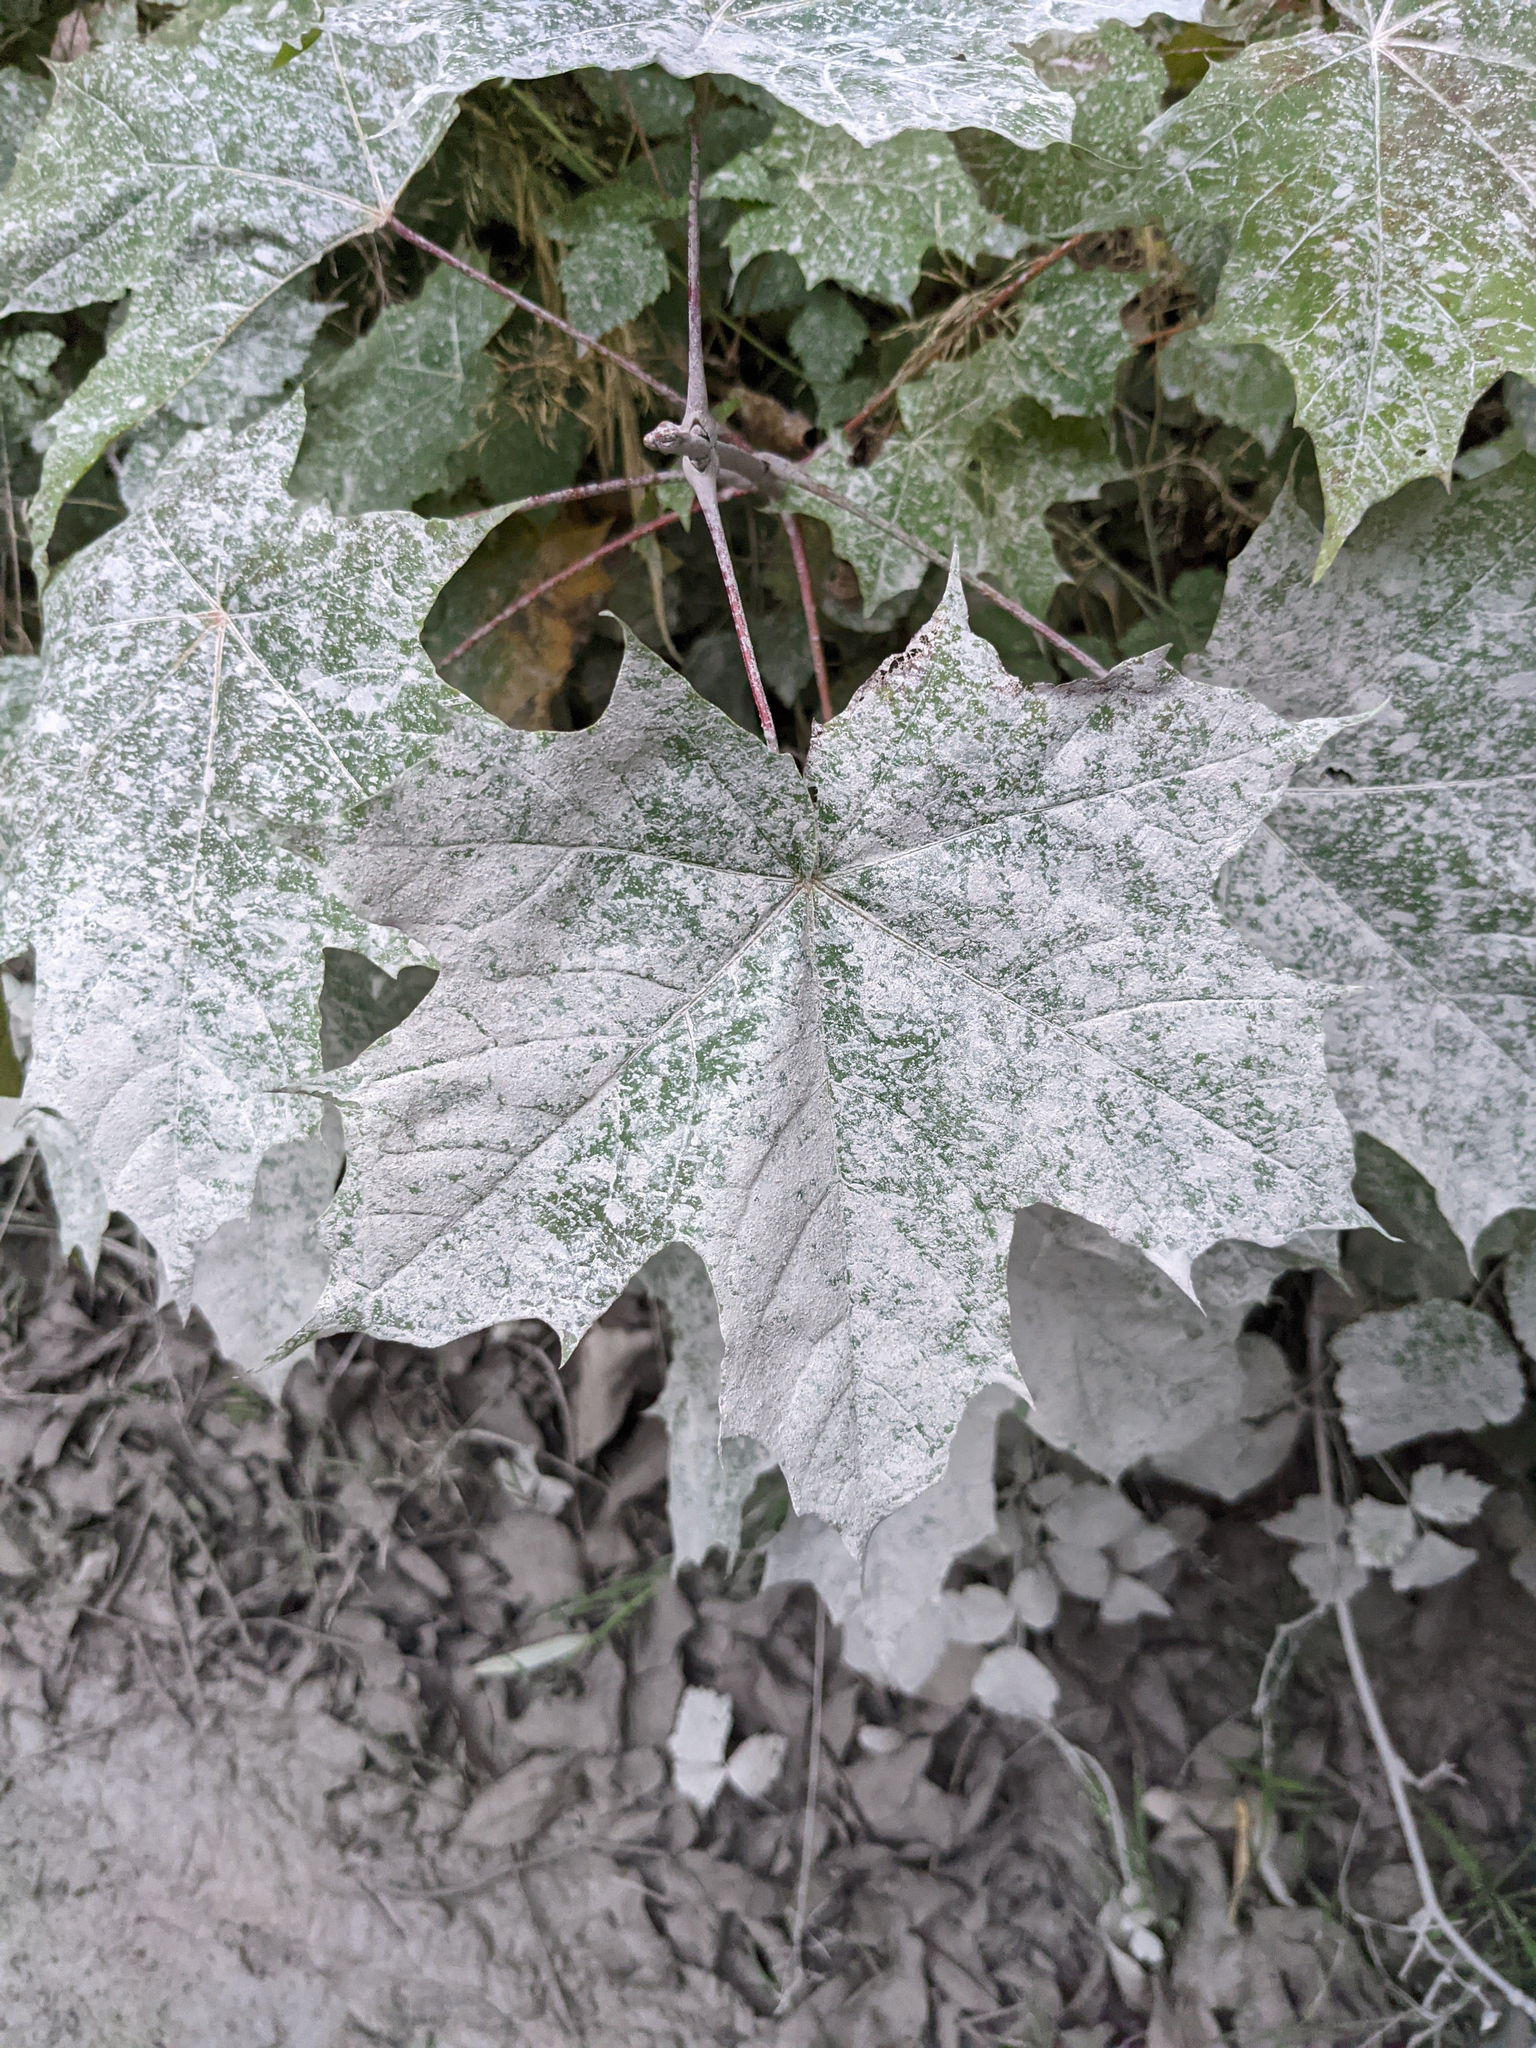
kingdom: Plantae
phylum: Tracheophyta
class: Magnoliopsida
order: Sapindales
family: Sapindaceae
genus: Acer
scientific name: Acer platanoides
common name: Norway maple
